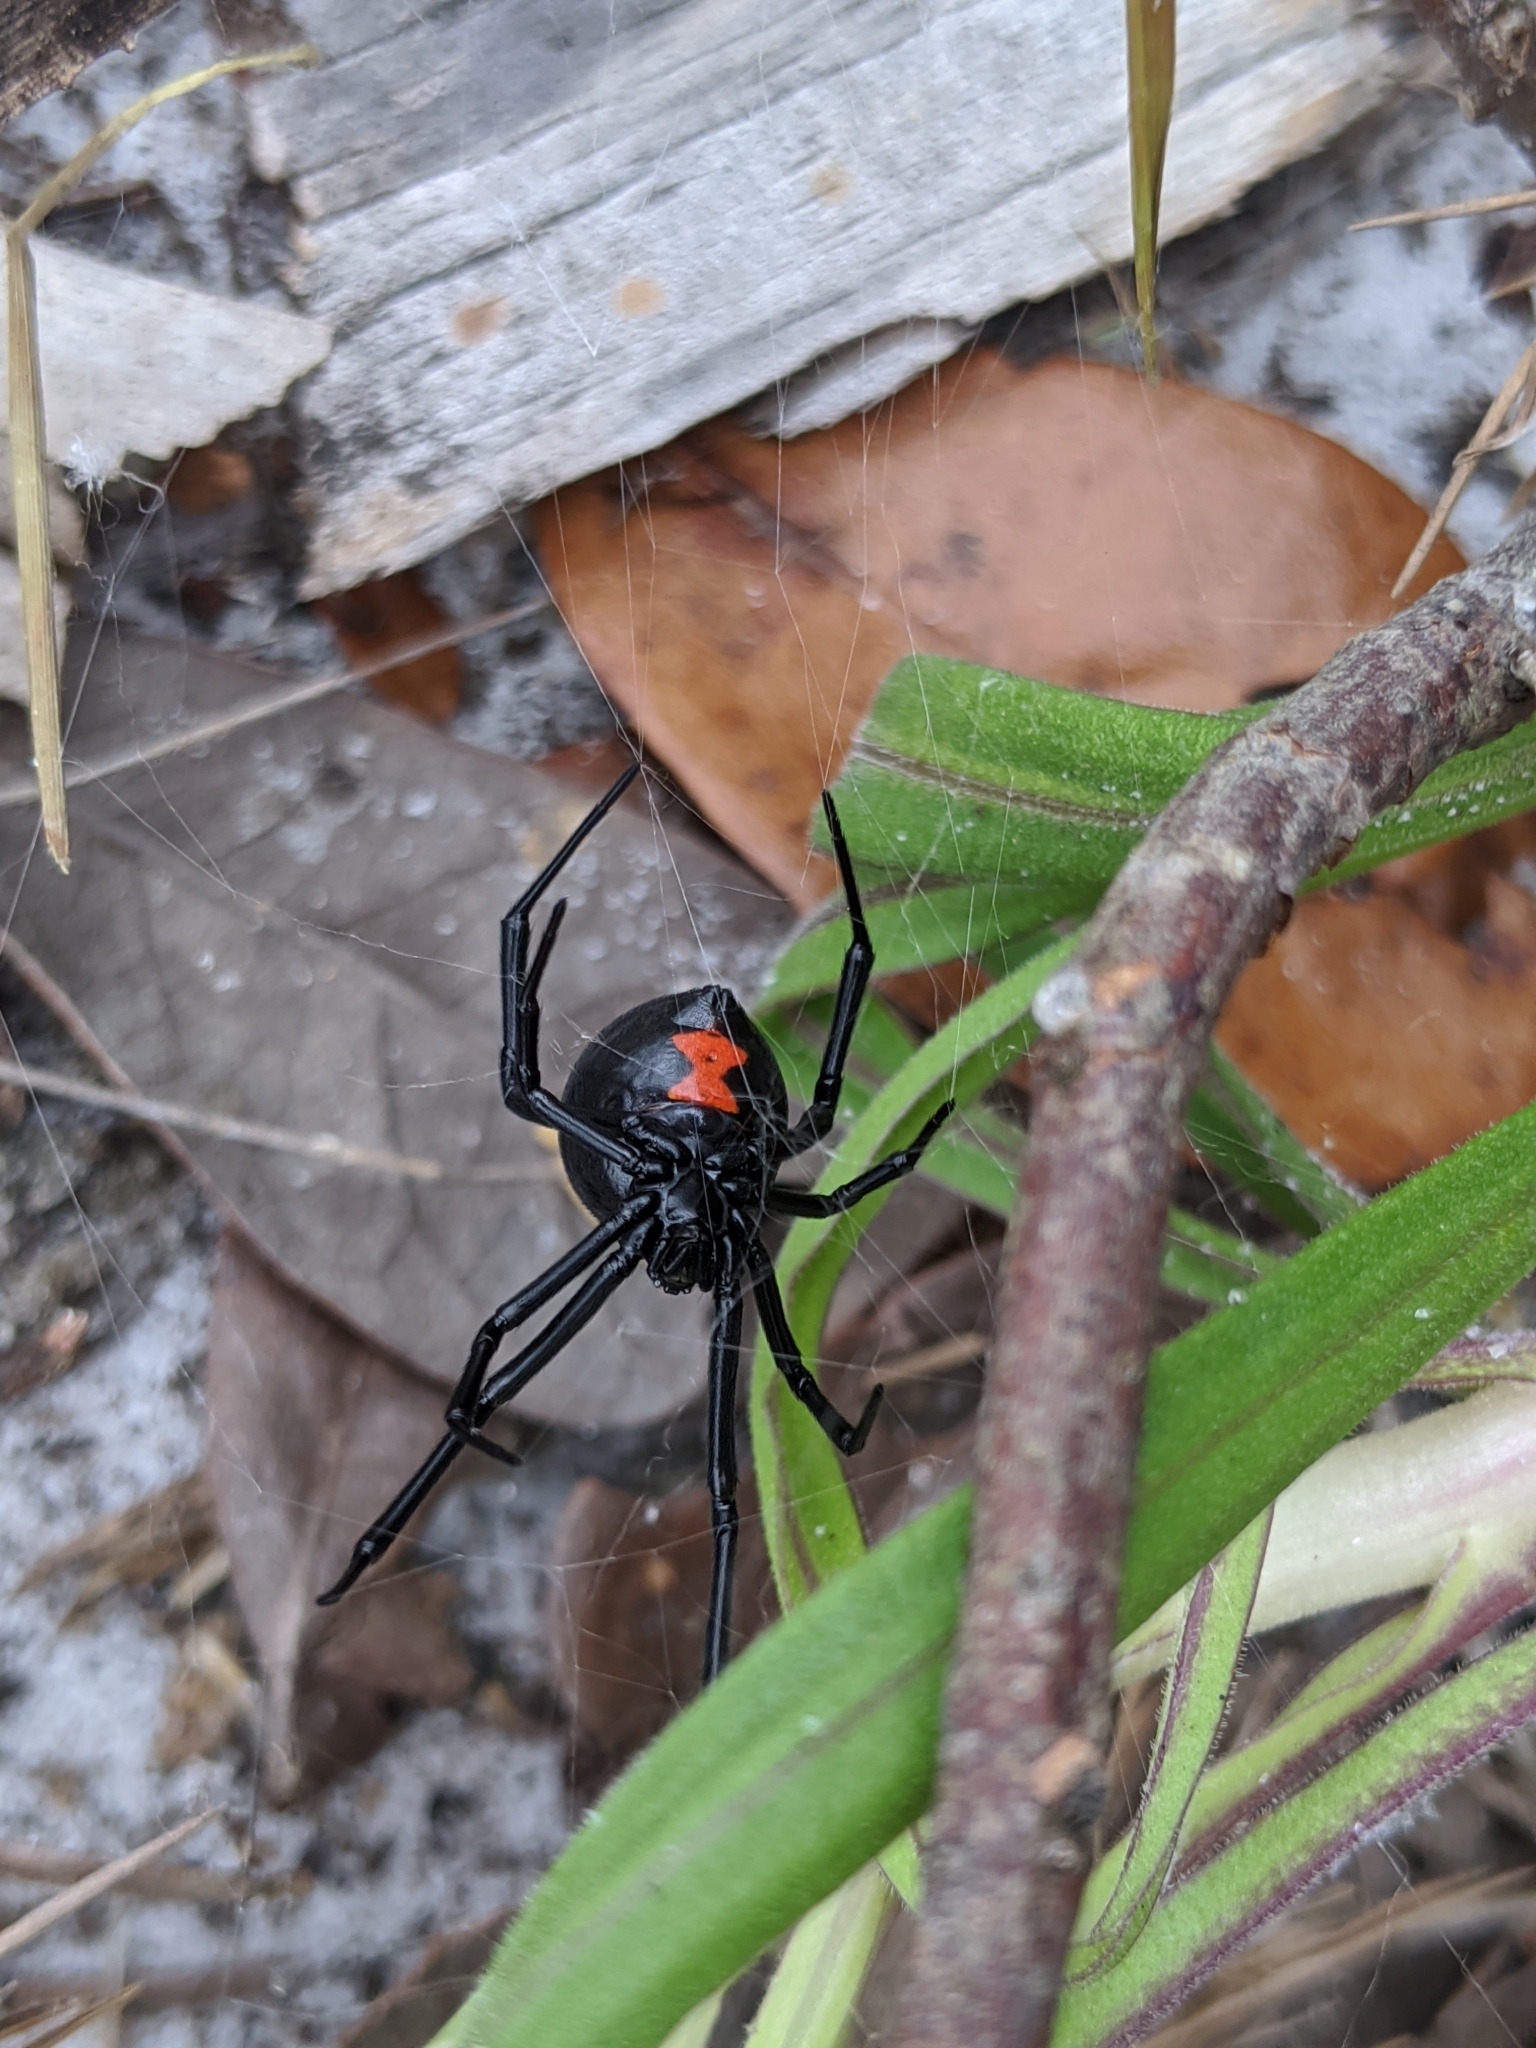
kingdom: Animalia
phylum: Arthropoda
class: Arachnida
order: Araneae
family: Theridiidae
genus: Latrodectus
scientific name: Latrodectus mactans
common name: Cobweb spiders
